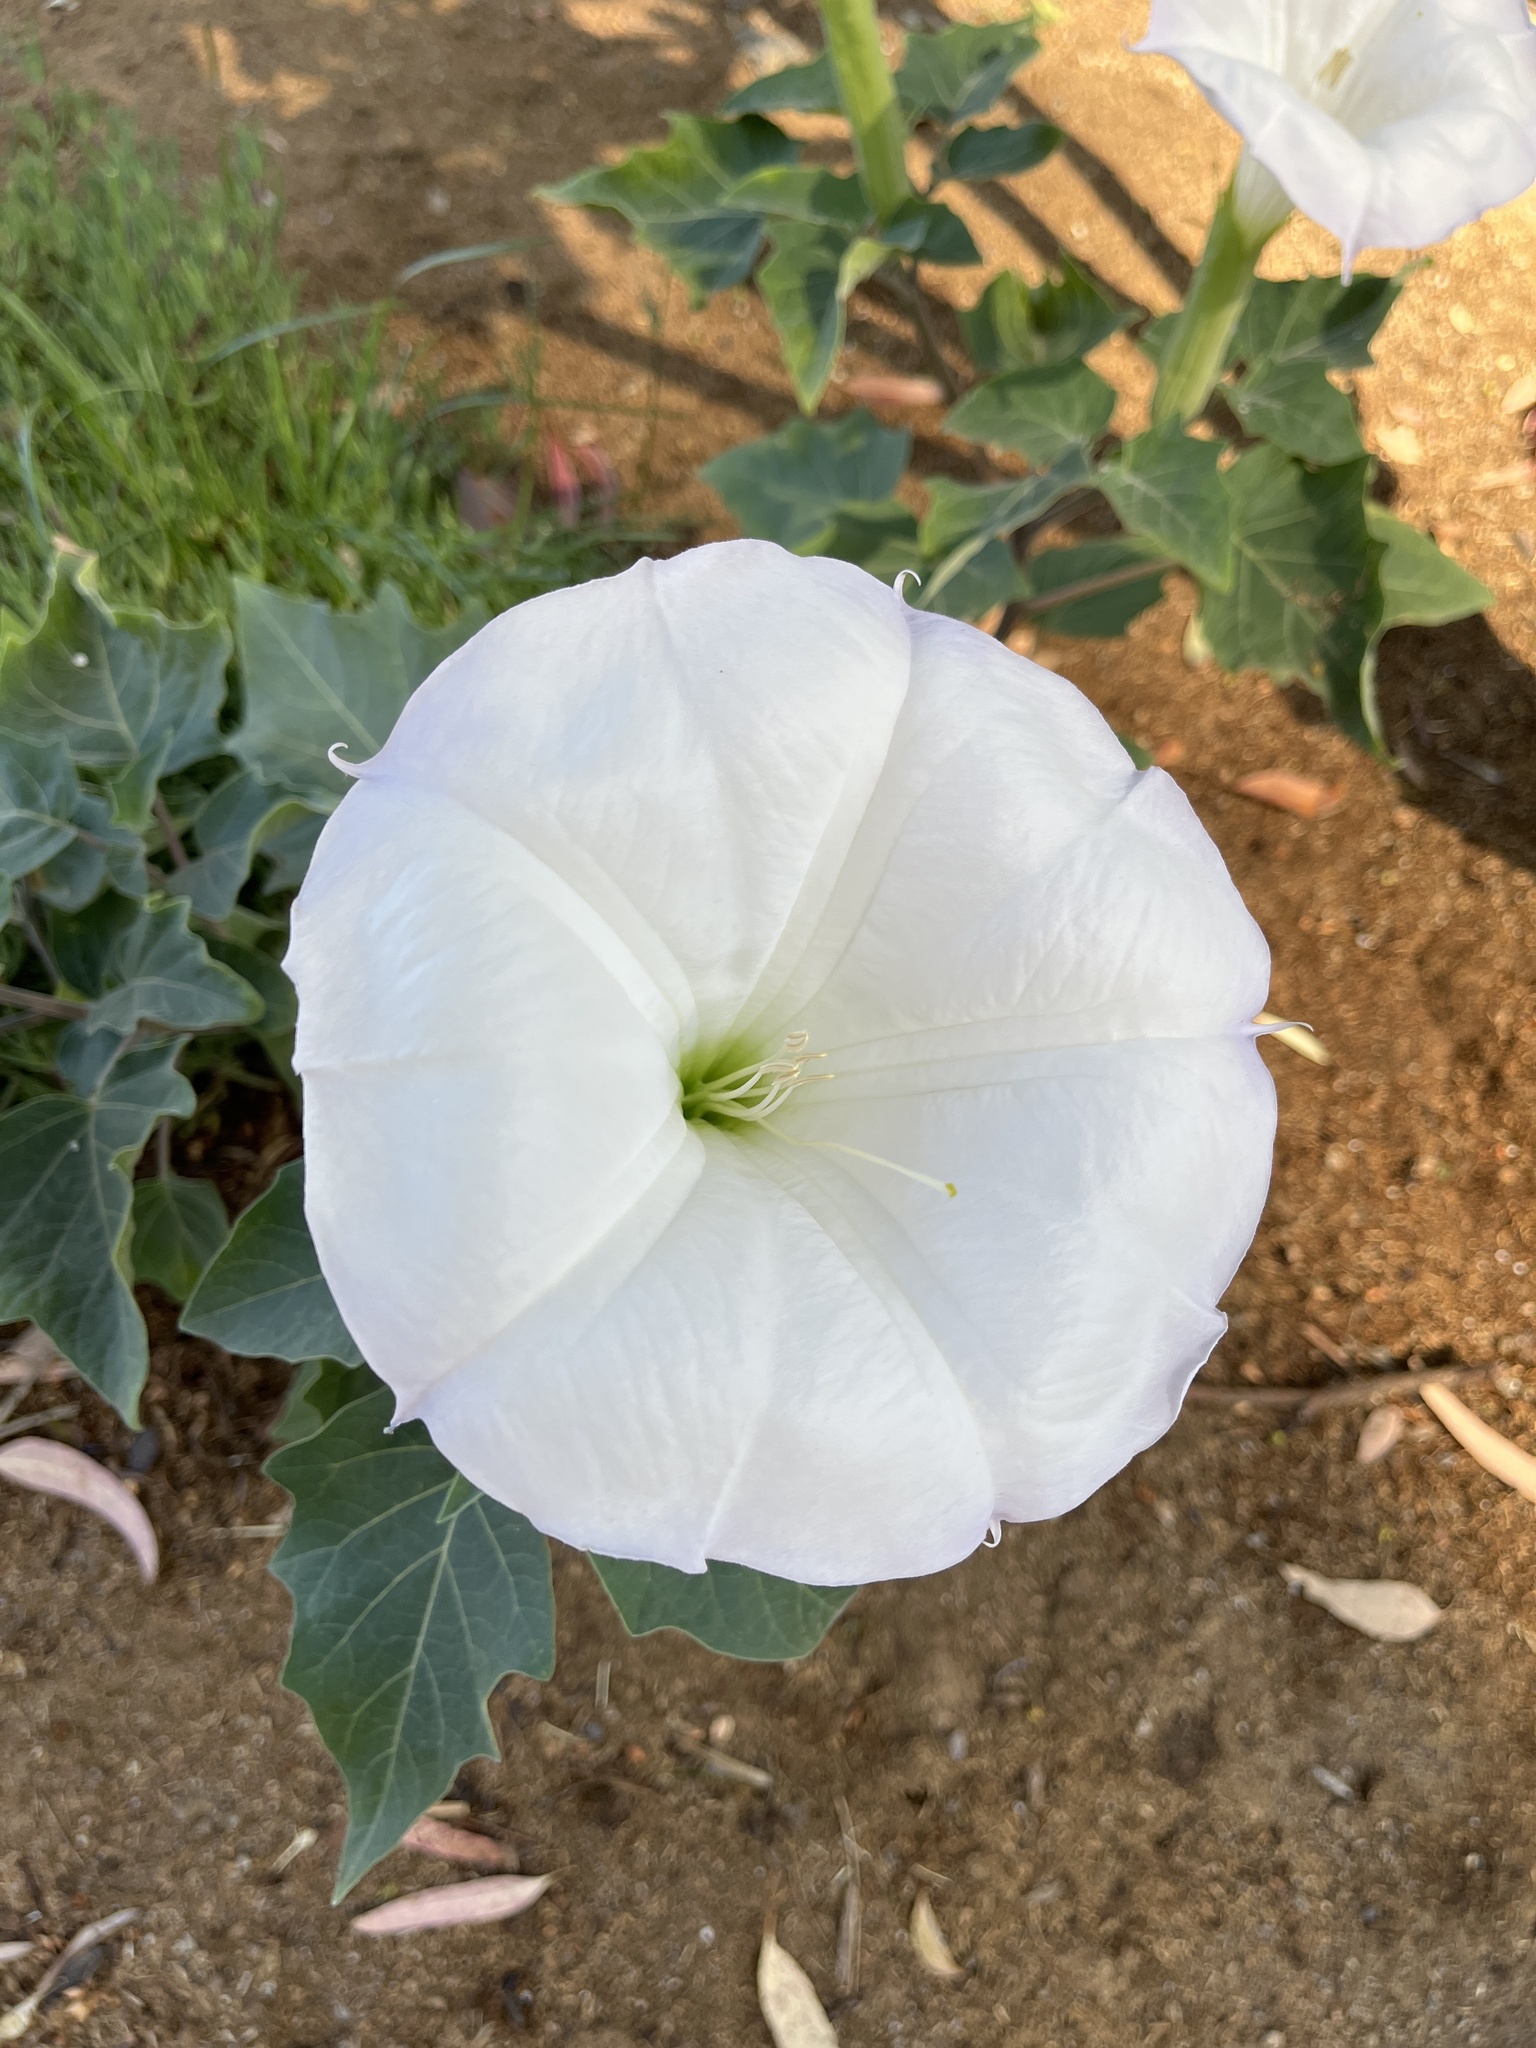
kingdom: Plantae
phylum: Tracheophyta
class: Magnoliopsida
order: Solanales
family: Solanaceae
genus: Datura
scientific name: Datura wrightii
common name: Sacred thorn-apple
